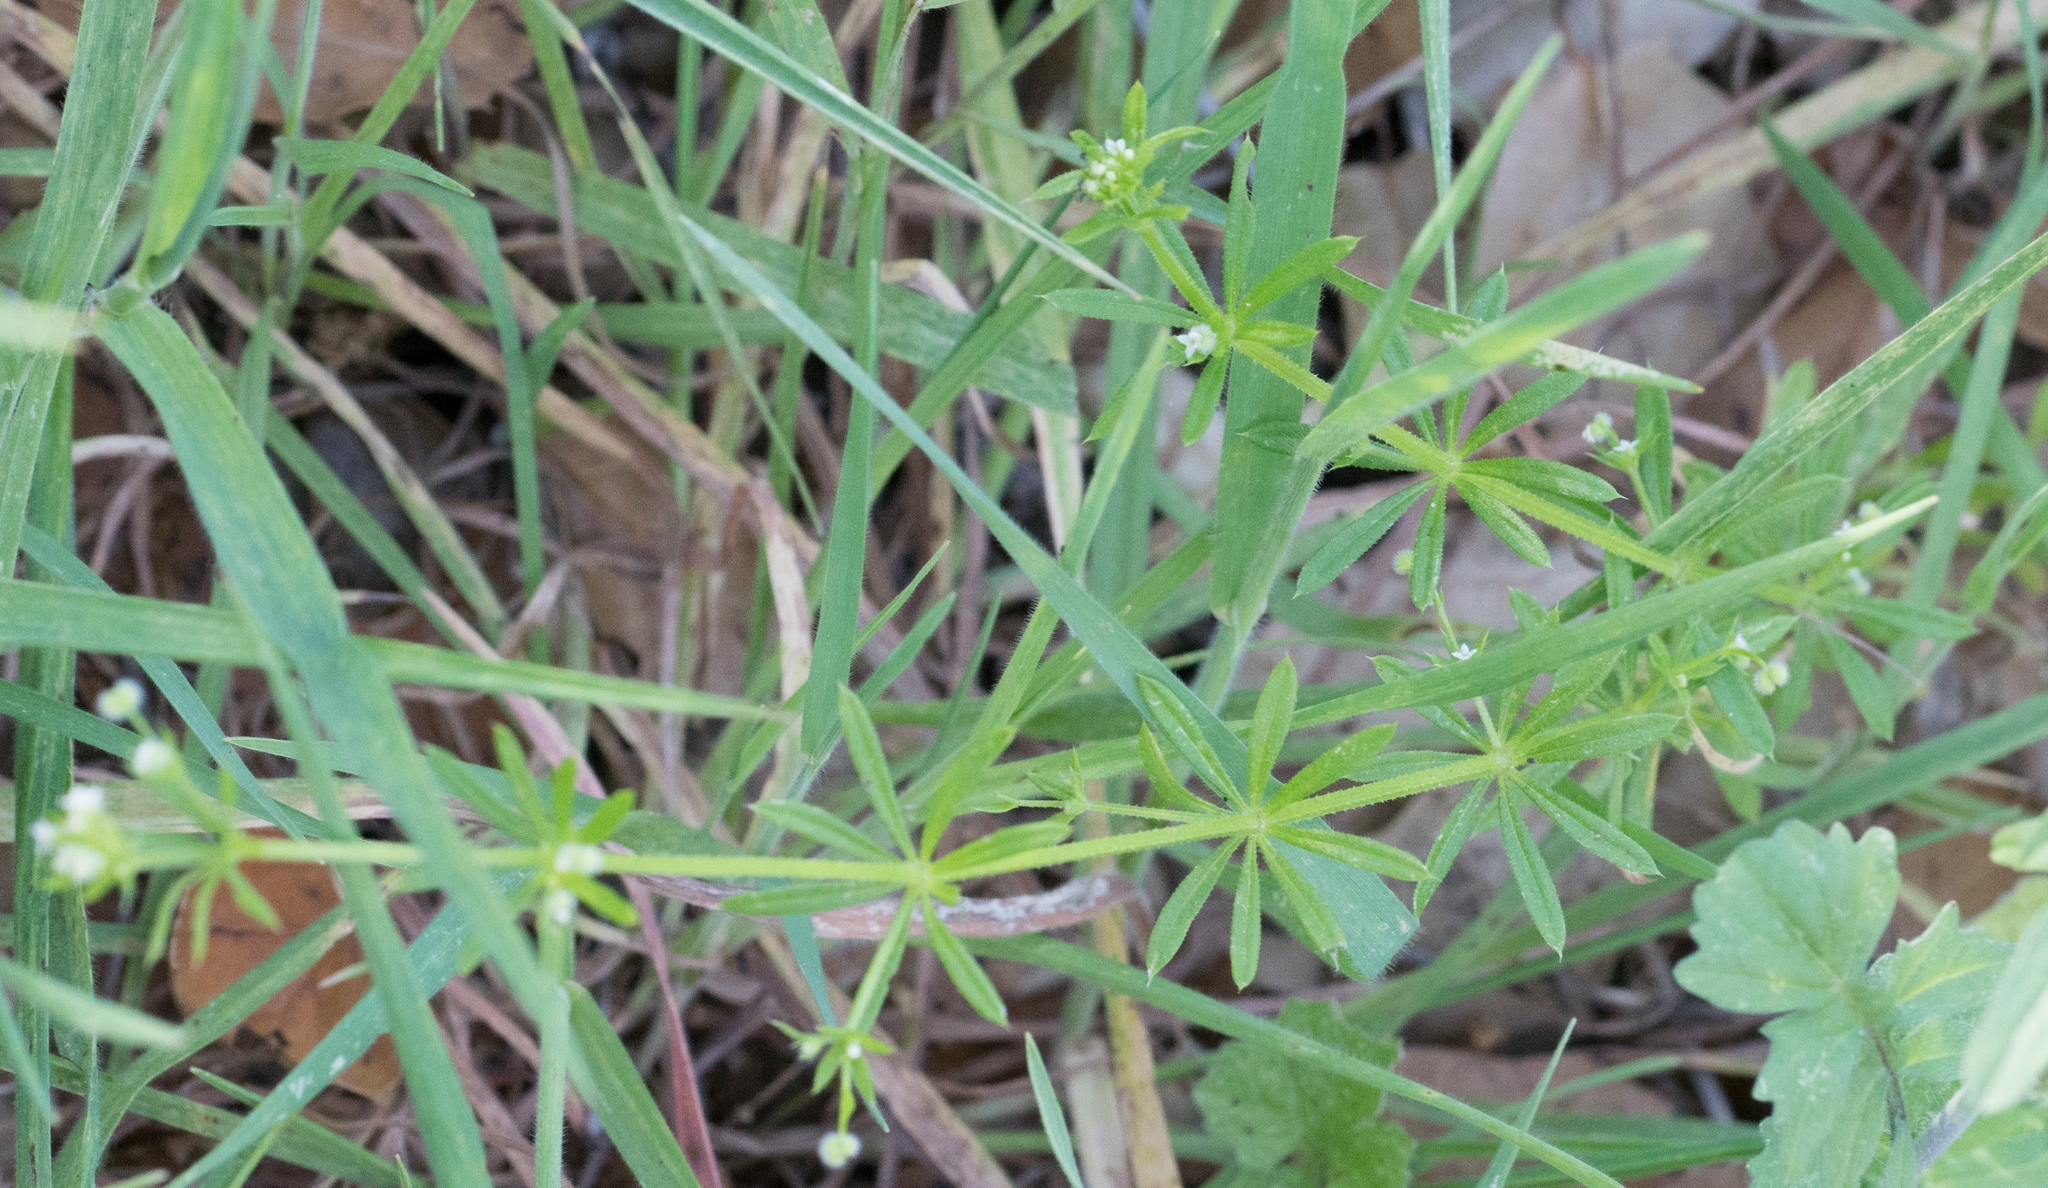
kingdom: Plantae
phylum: Tracheophyta
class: Magnoliopsida
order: Gentianales
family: Rubiaceae
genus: Galium
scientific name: Galium aparine
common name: Cleavers
